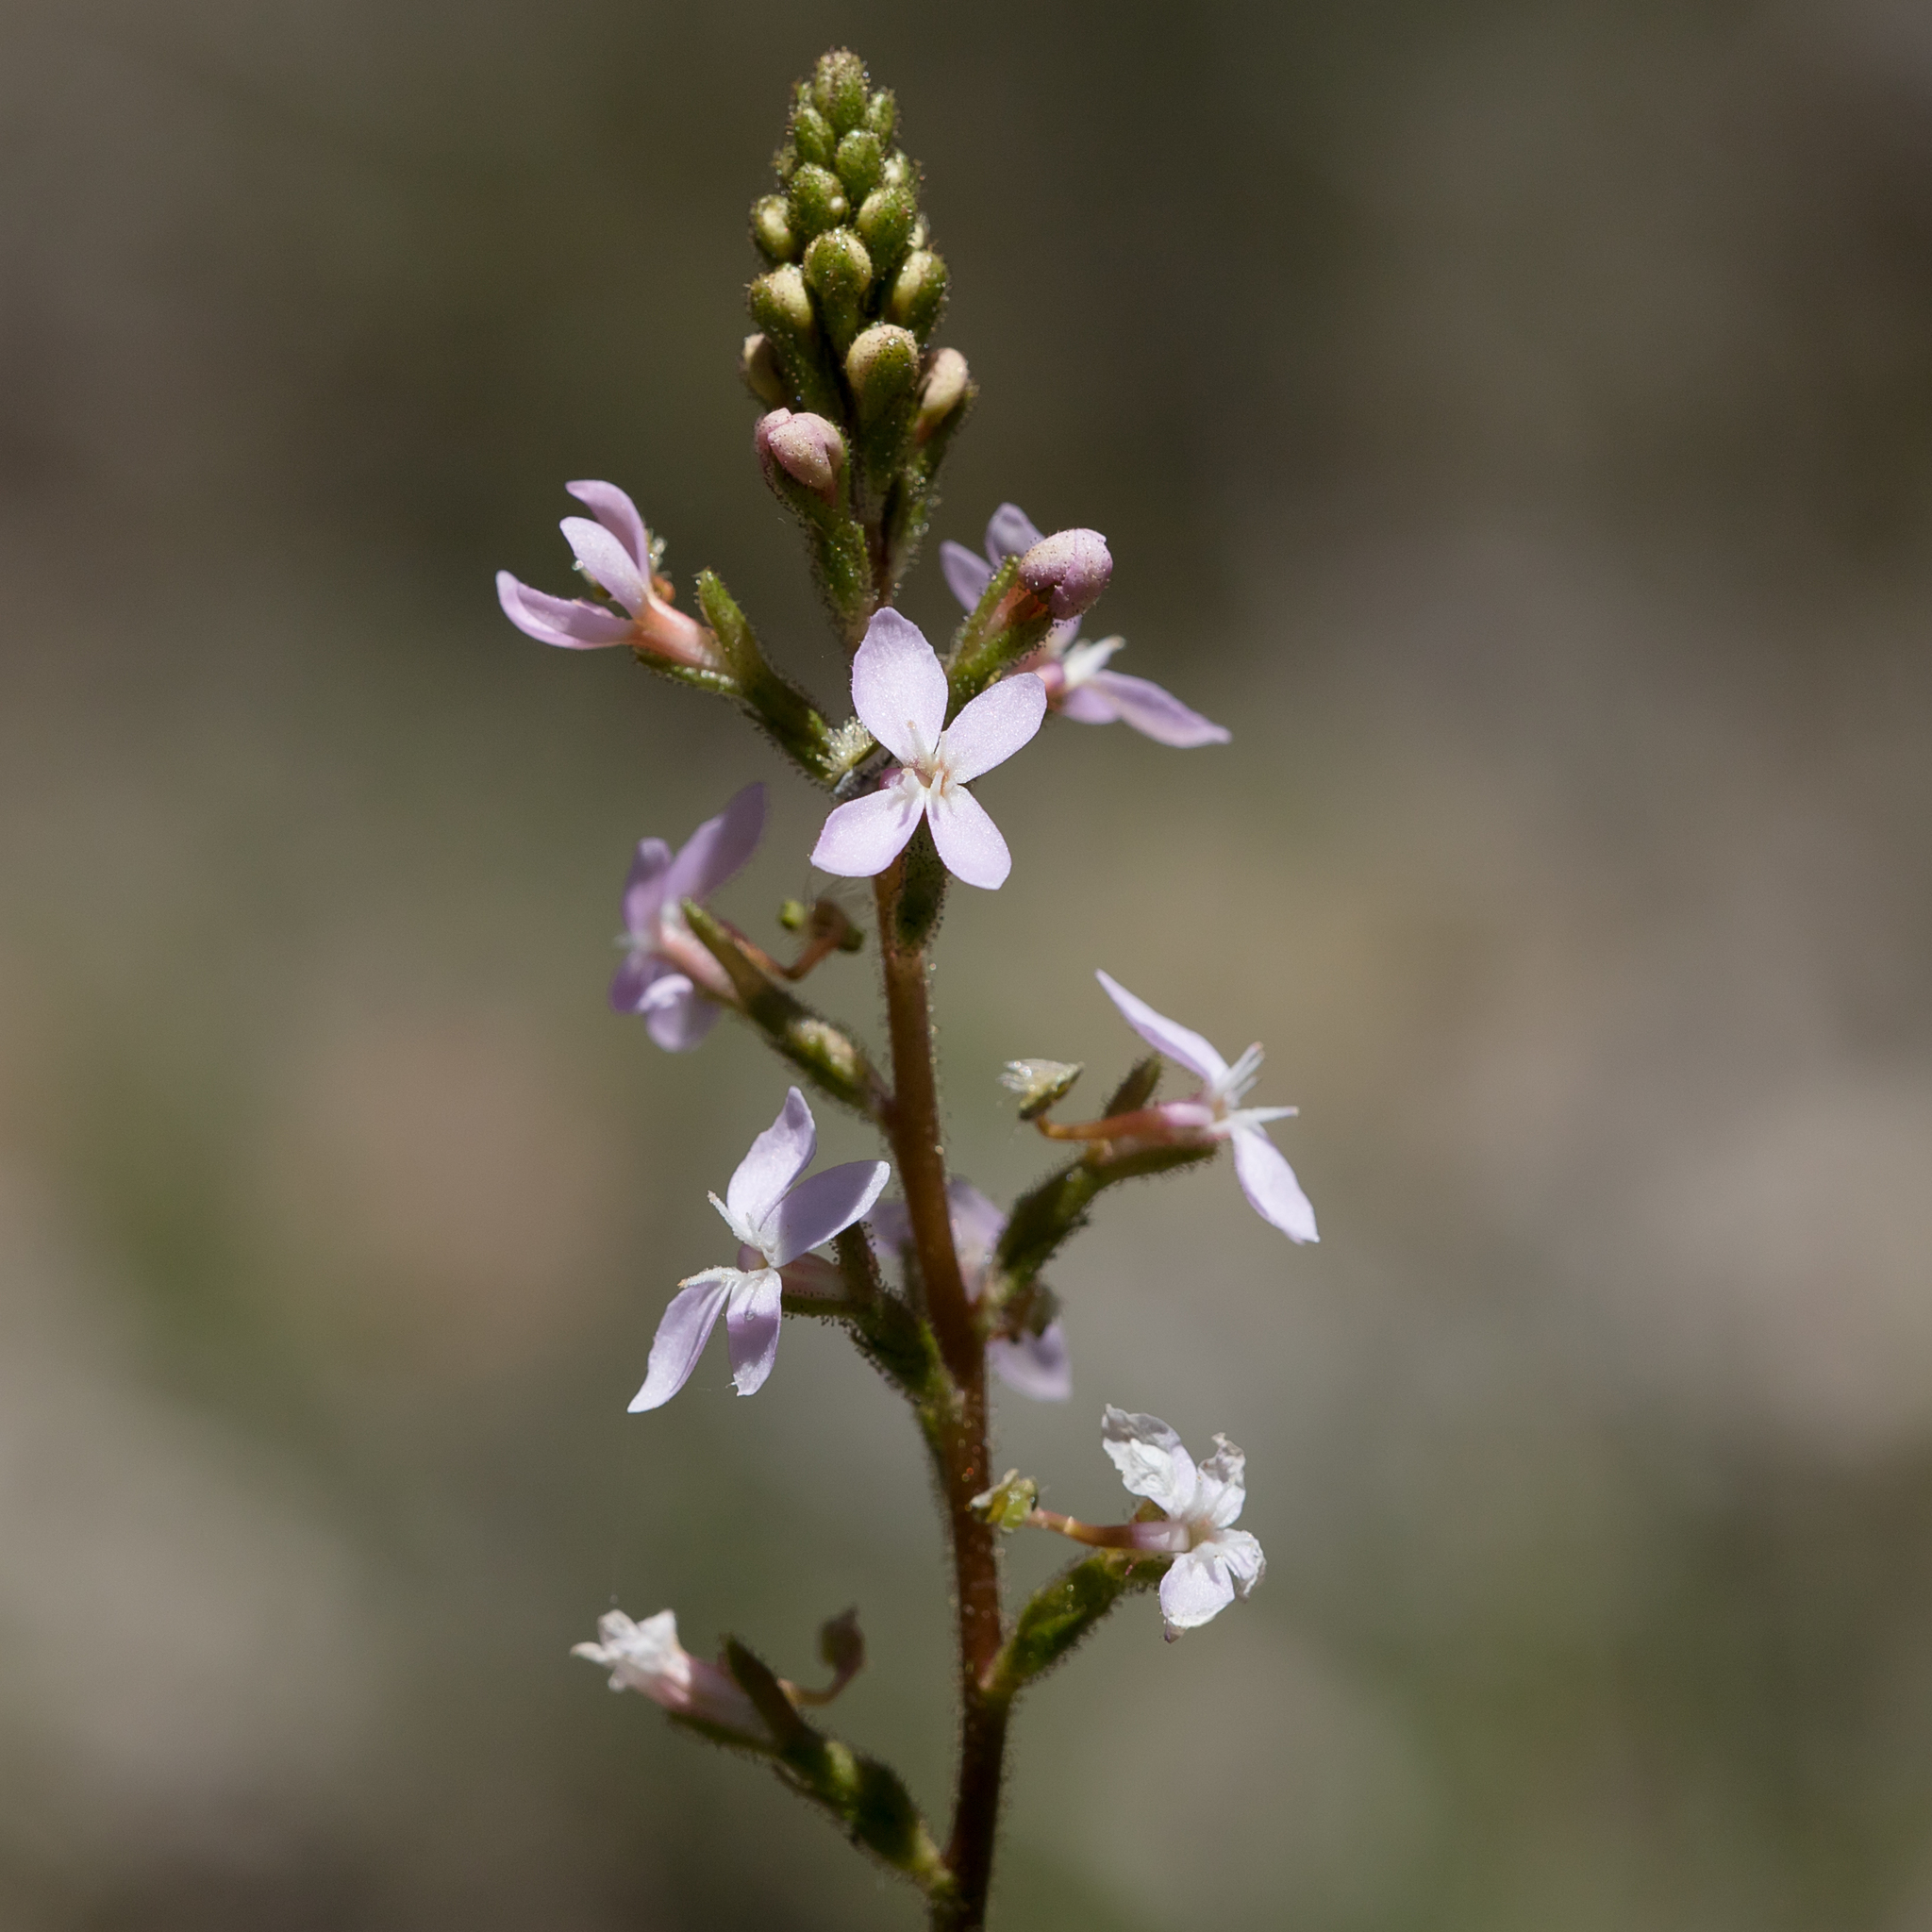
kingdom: Plantae
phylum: Tracheophyta
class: Magnoliopsida
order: Asterales
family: Stylidiaceae
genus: Stylidium
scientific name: Stylidium graminifolium
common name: Grass triggerplant
